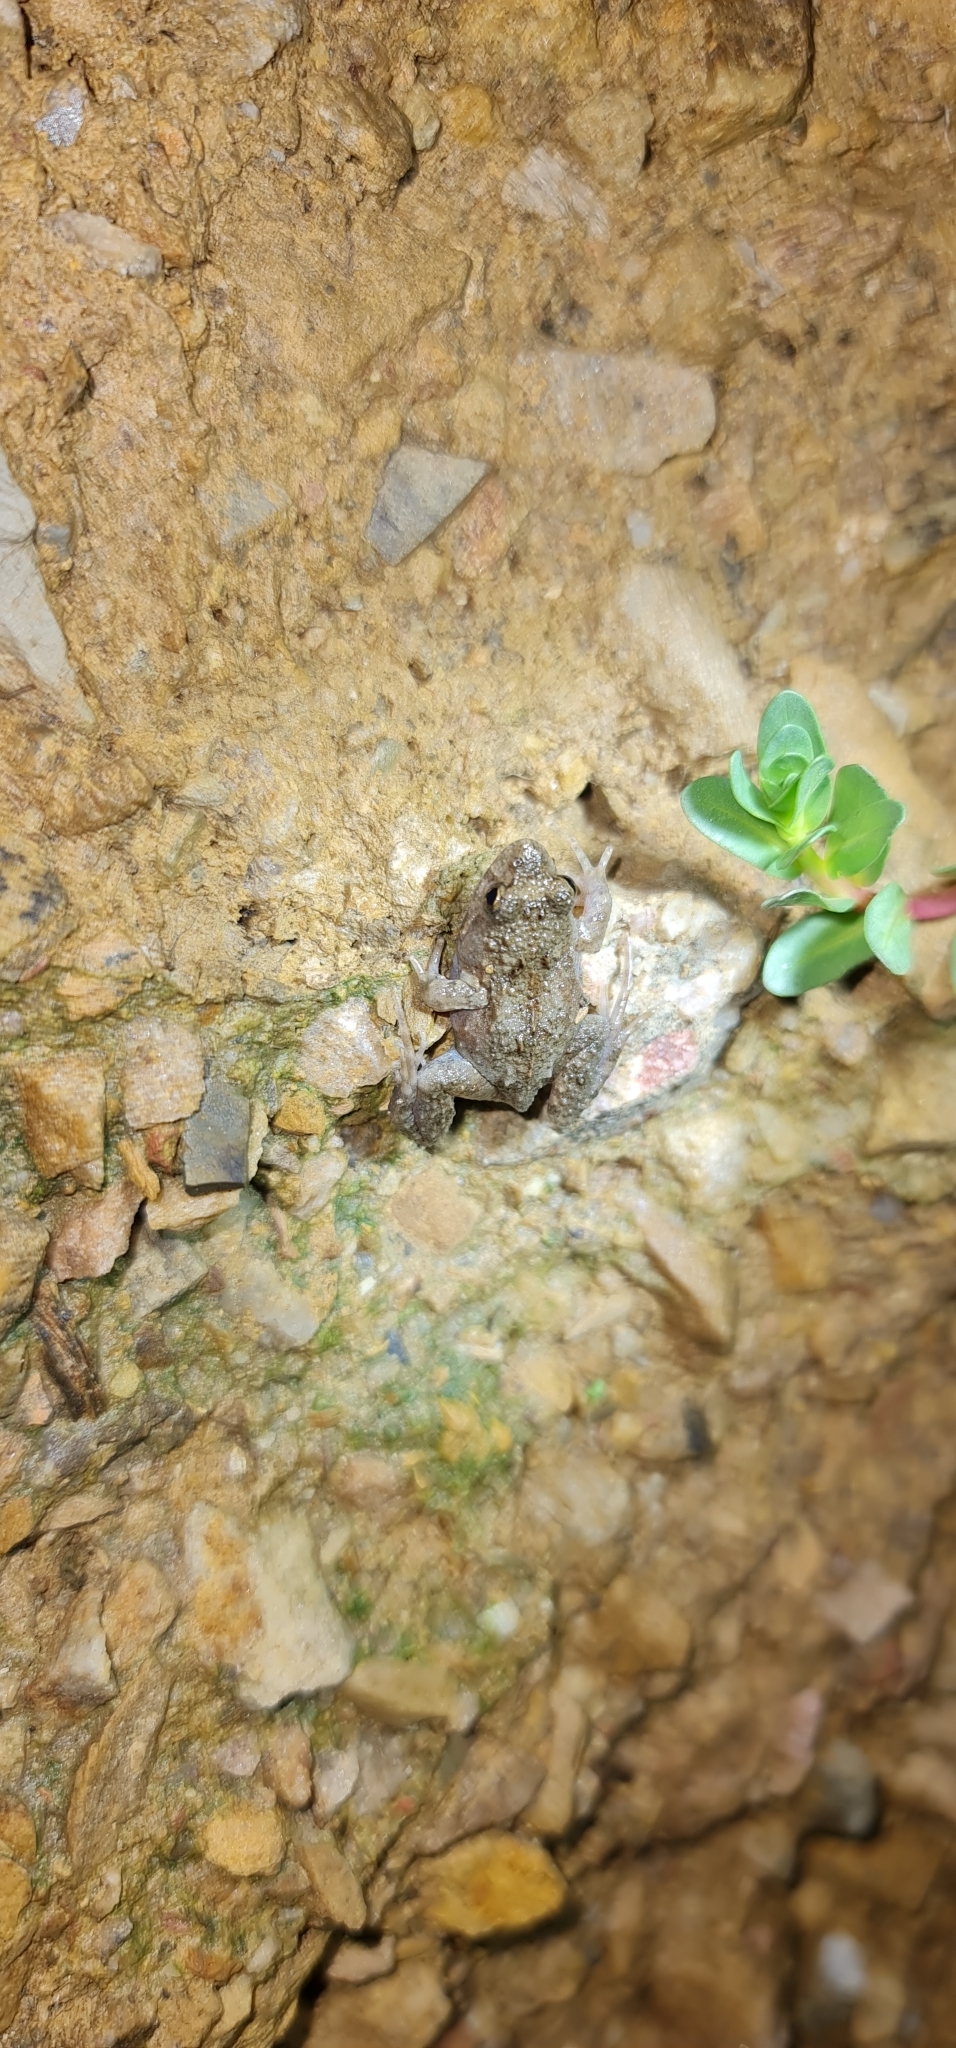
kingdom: Animalia
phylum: Chordata
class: Amphibia
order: Anura
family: Myobatrachidae
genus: Crinia
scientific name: Crinia signifera
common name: Brown froglet
